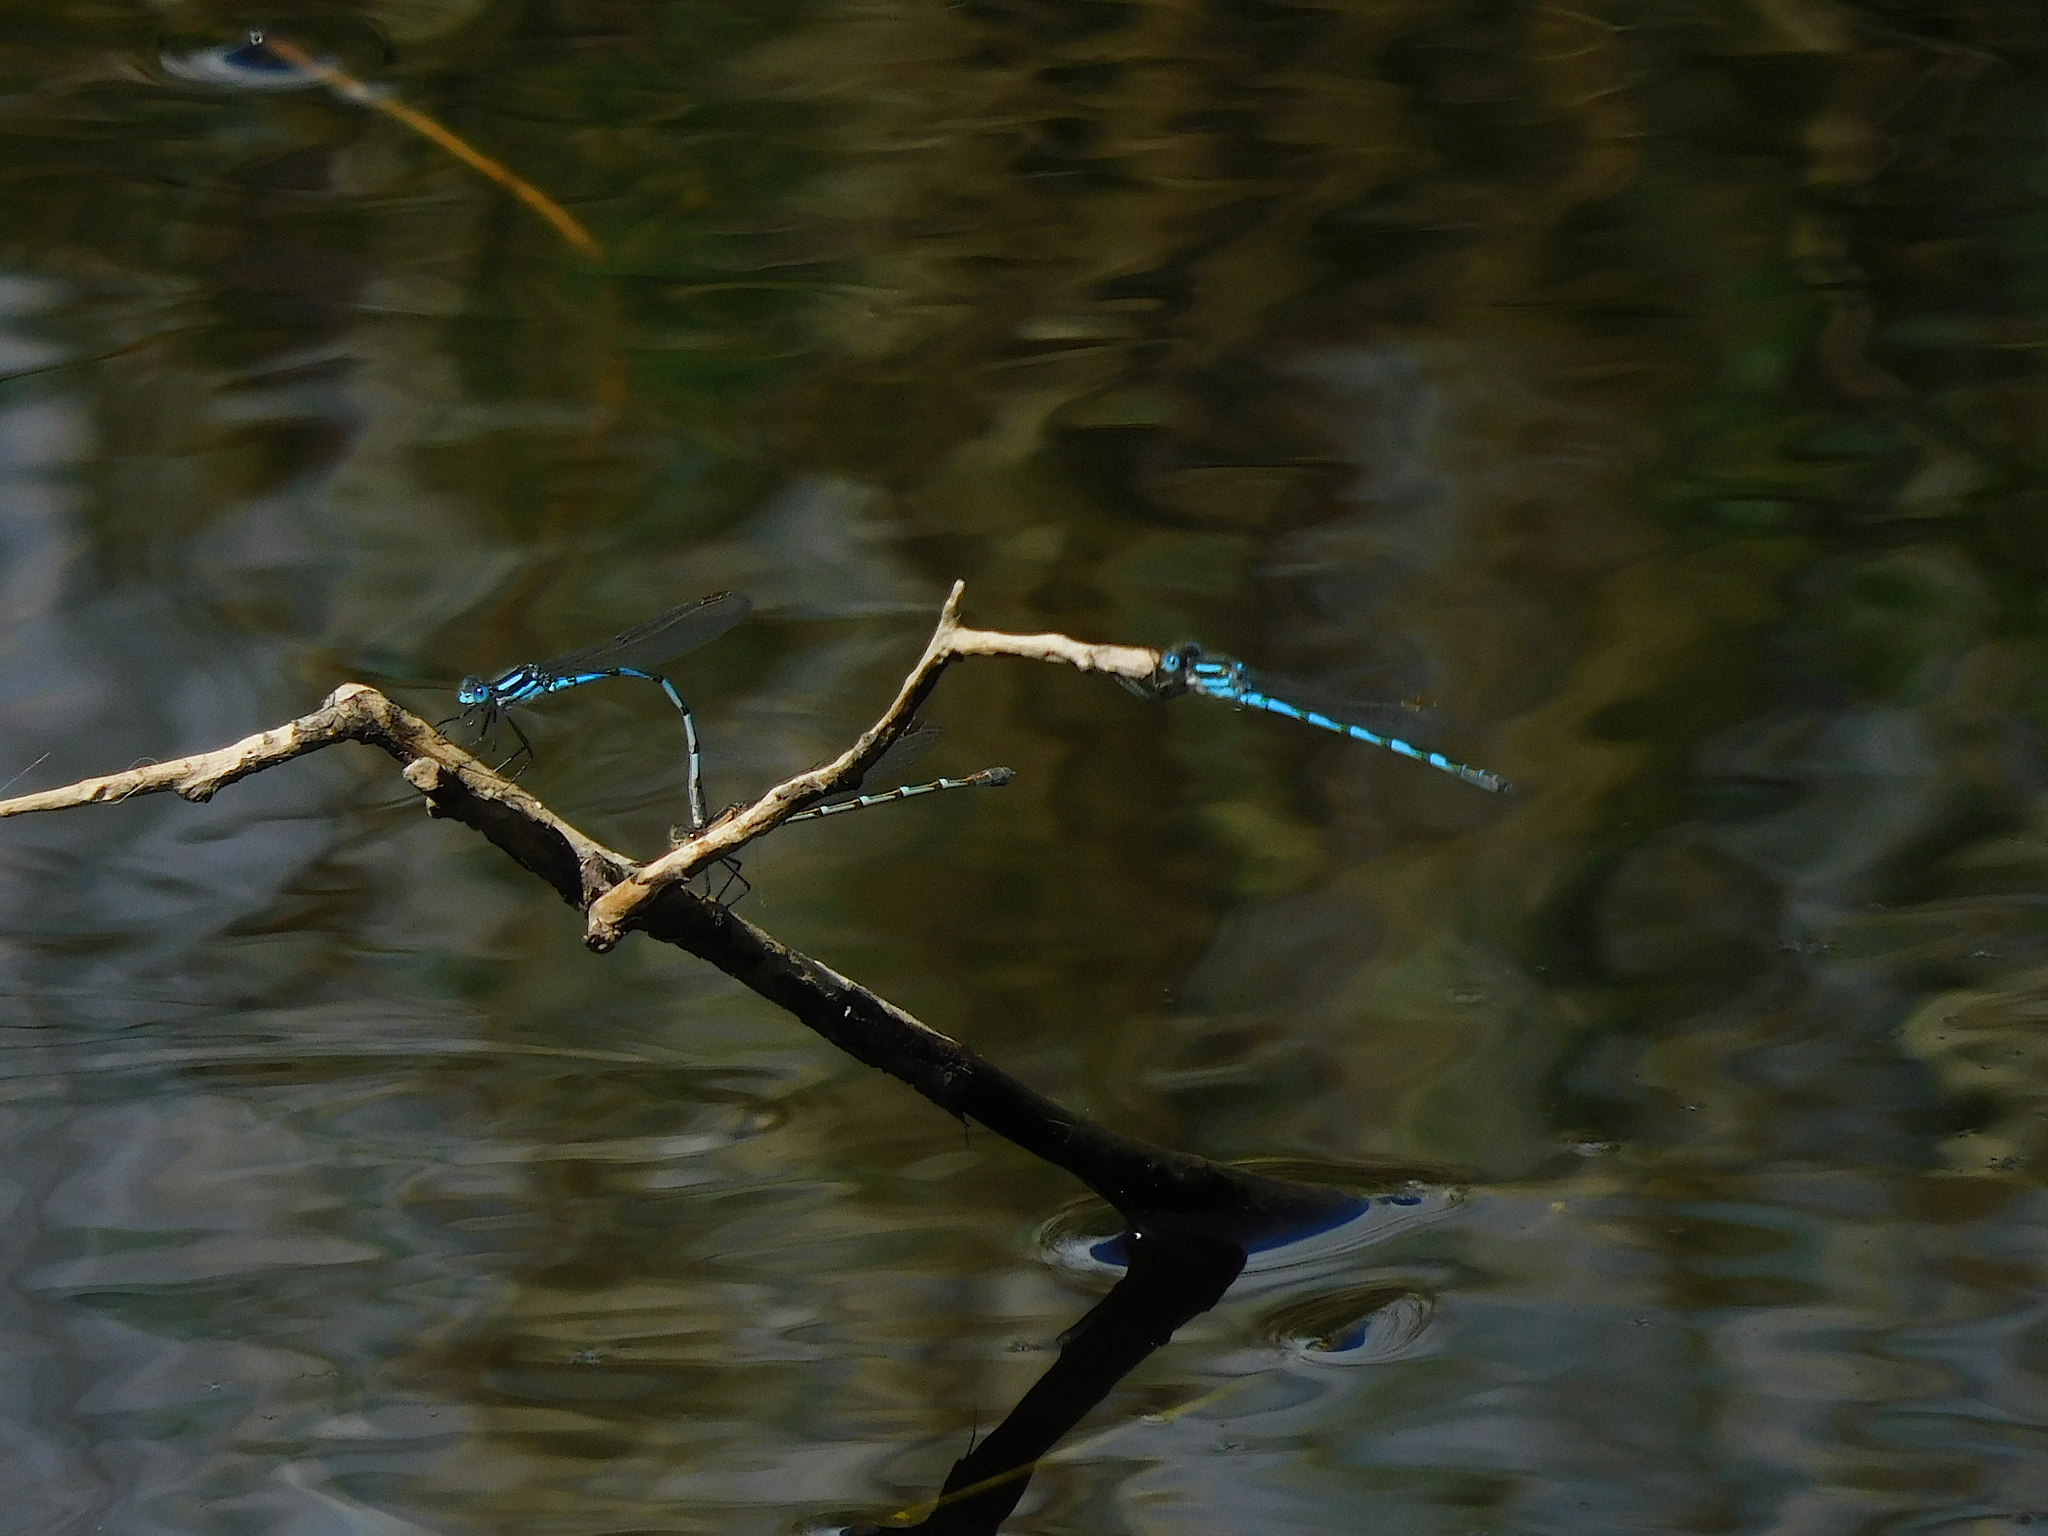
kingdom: Animalia
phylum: Arthropoda
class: Insecta
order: Odonata
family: Lestidae
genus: Austrolestes
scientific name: Austrolestes annulosus
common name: Blue ringtail
